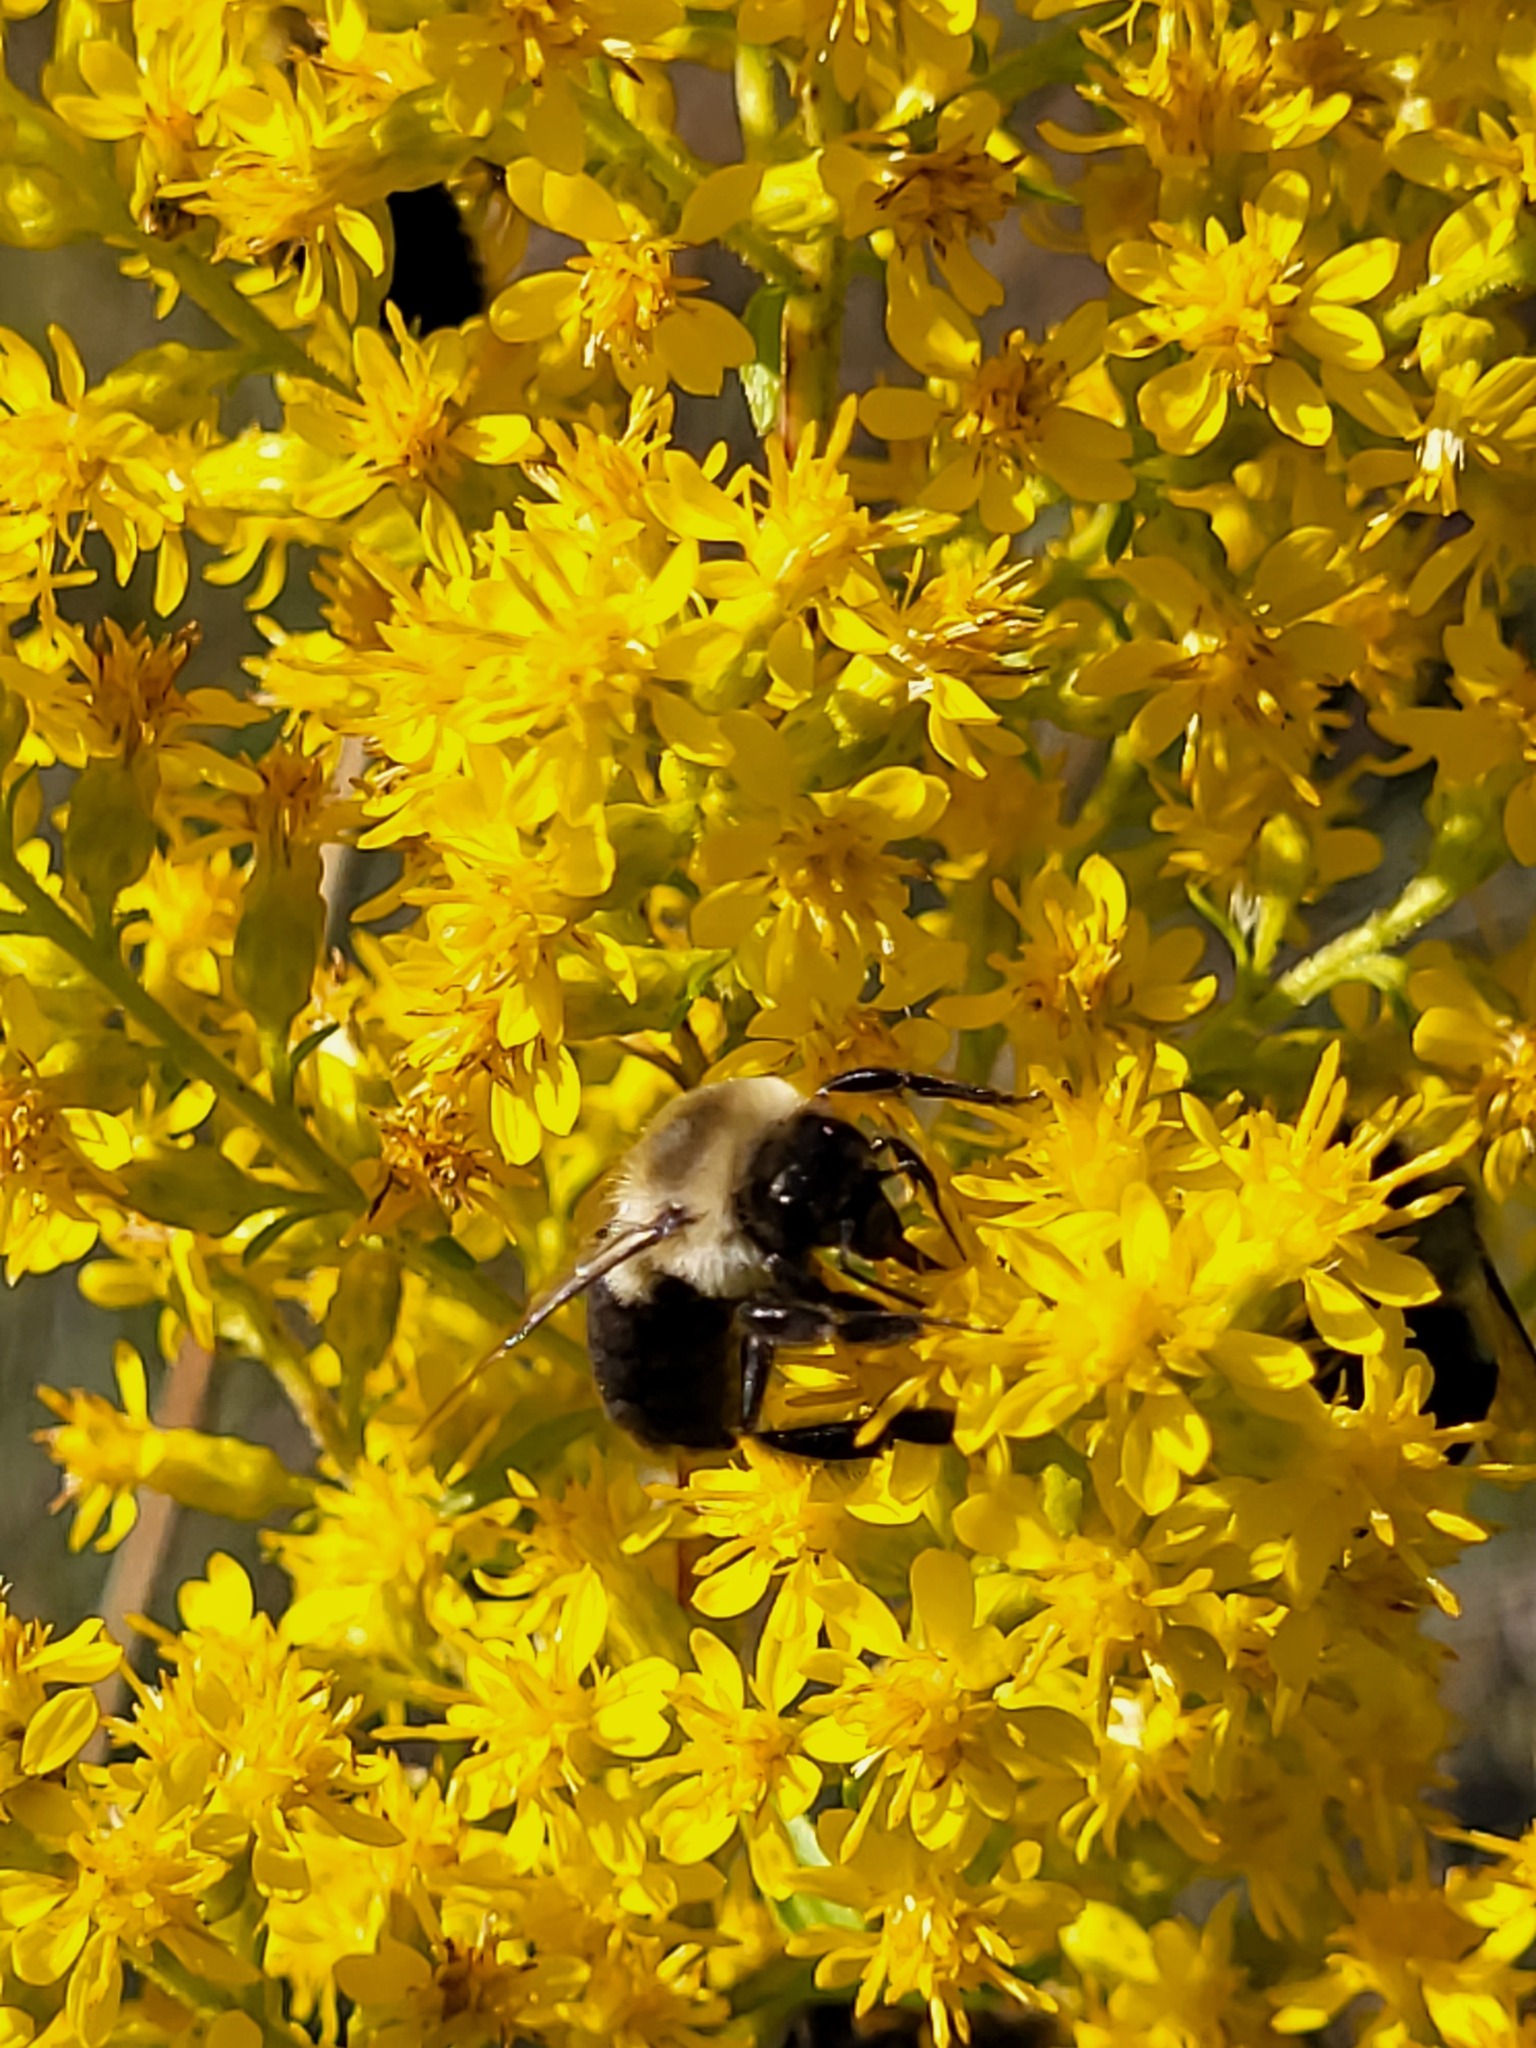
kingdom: Animalia
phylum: Arthropoda
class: Insecta
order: Hymenoptera
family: Apidae
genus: Bombus
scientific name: Bombus impatiens
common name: Common eastern bumble bee
